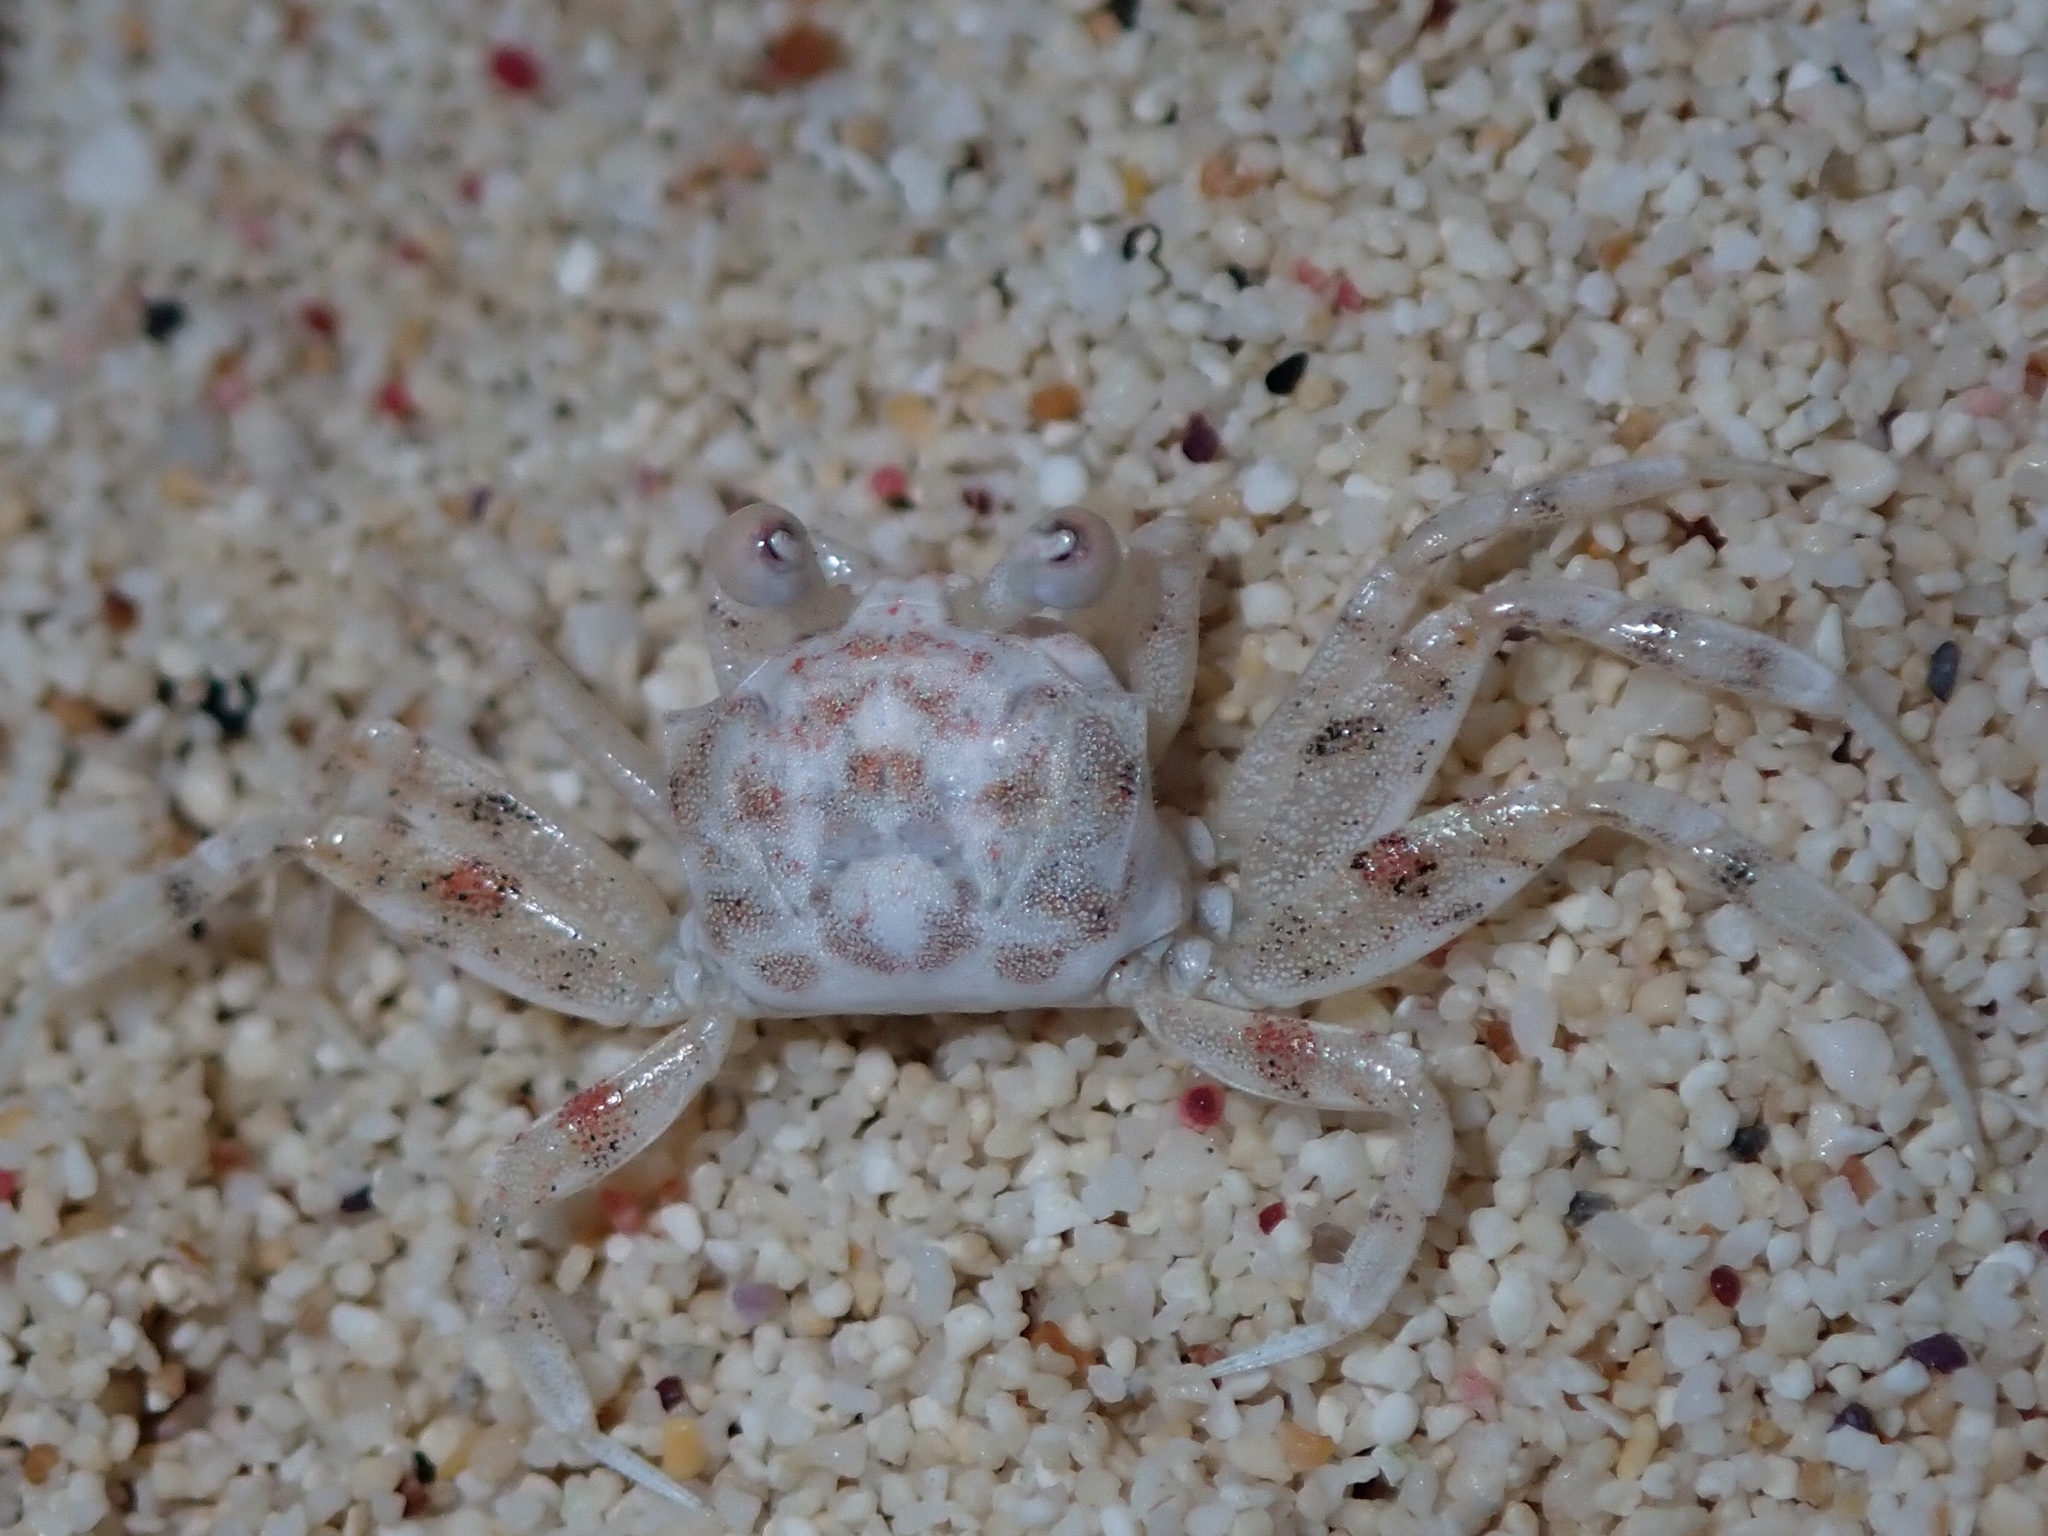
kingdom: Animalia
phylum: Arthropoda
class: Malacostraca
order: Decapoda
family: Ocypodidae
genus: Ocypode
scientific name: Ocypode quadrata
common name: Ghost crab
